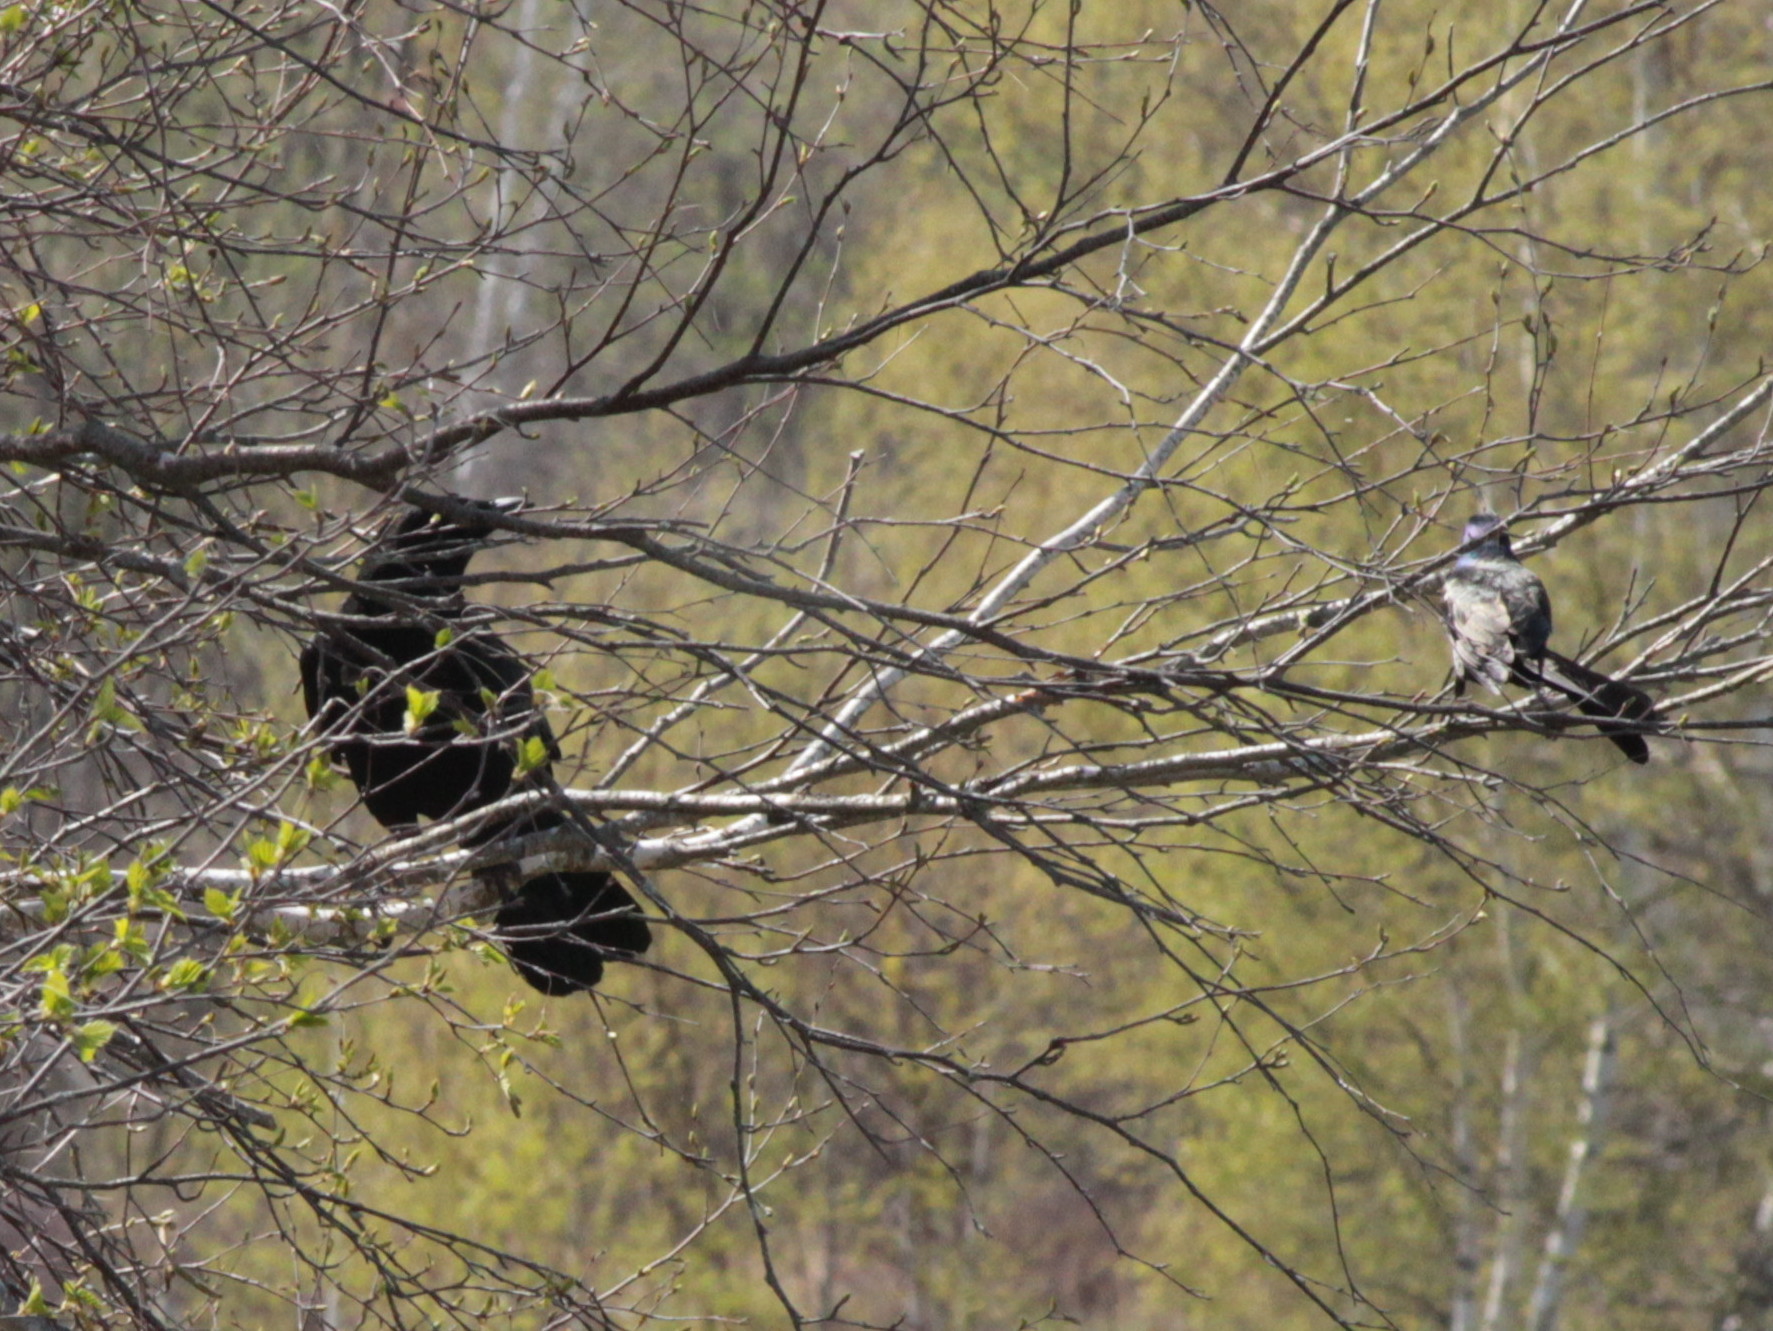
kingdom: Animalia
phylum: Chordata
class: Aves
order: Passeriformes
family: Corvidae
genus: Corvus
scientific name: Corvus brachyrhynchos
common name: American crow
